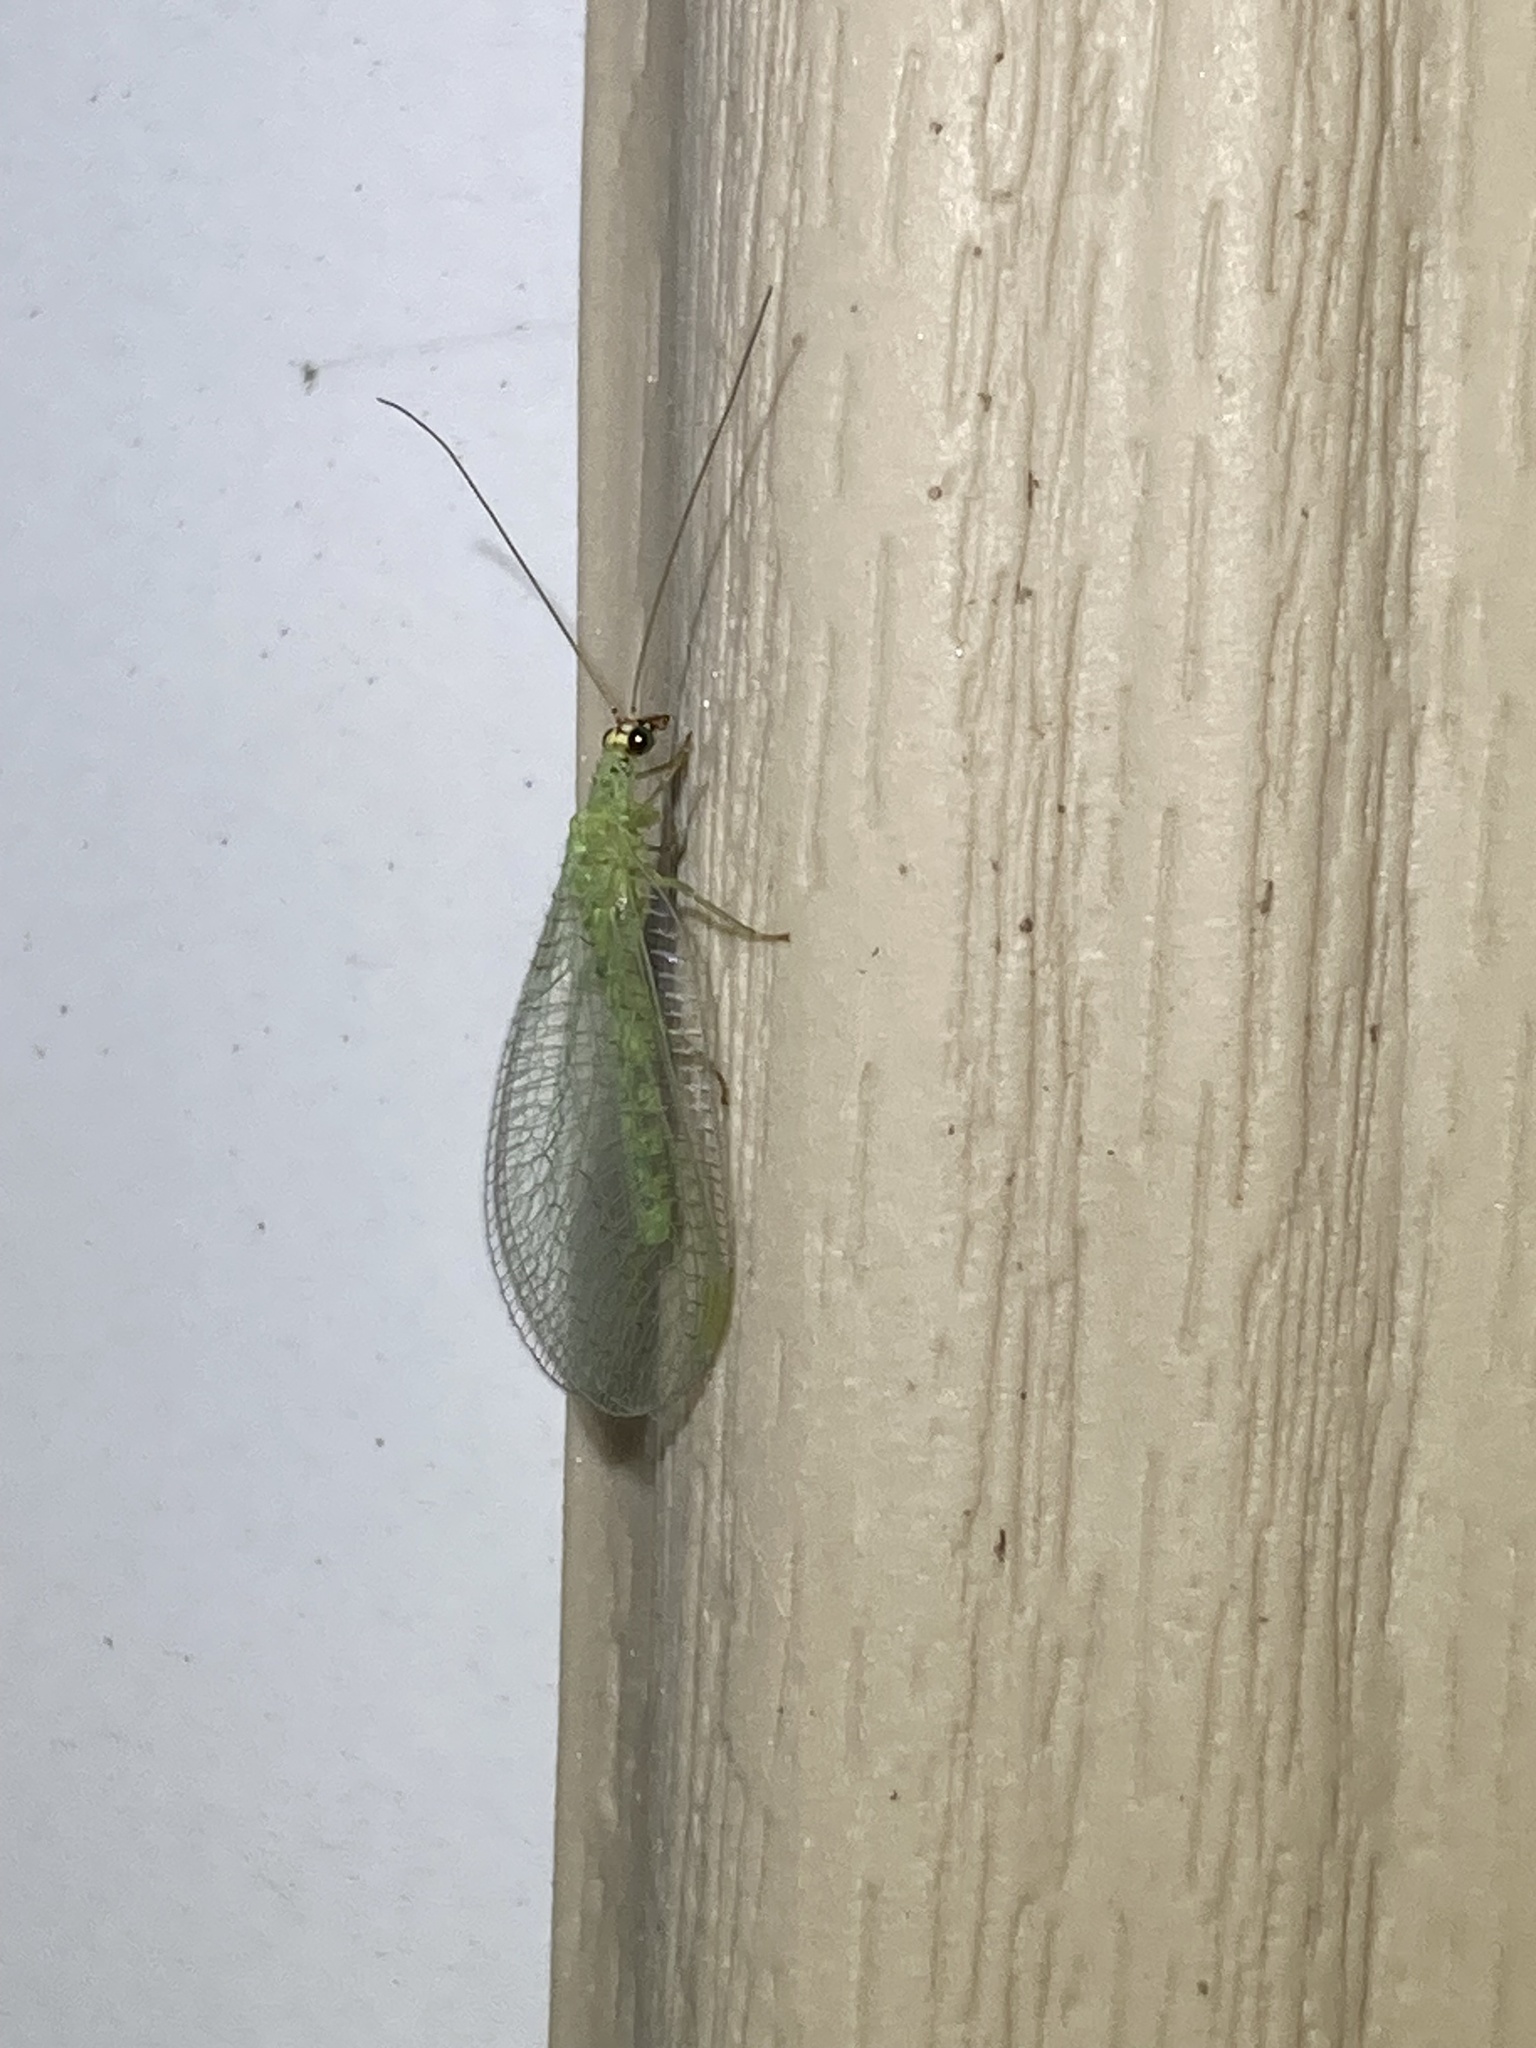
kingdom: Animalia
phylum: Arthropoda
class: Insecta
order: Neuroptera
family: Chrysopidae
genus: Chrysopa
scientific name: Chrysopa oculata
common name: Golden-eyed lacewing
